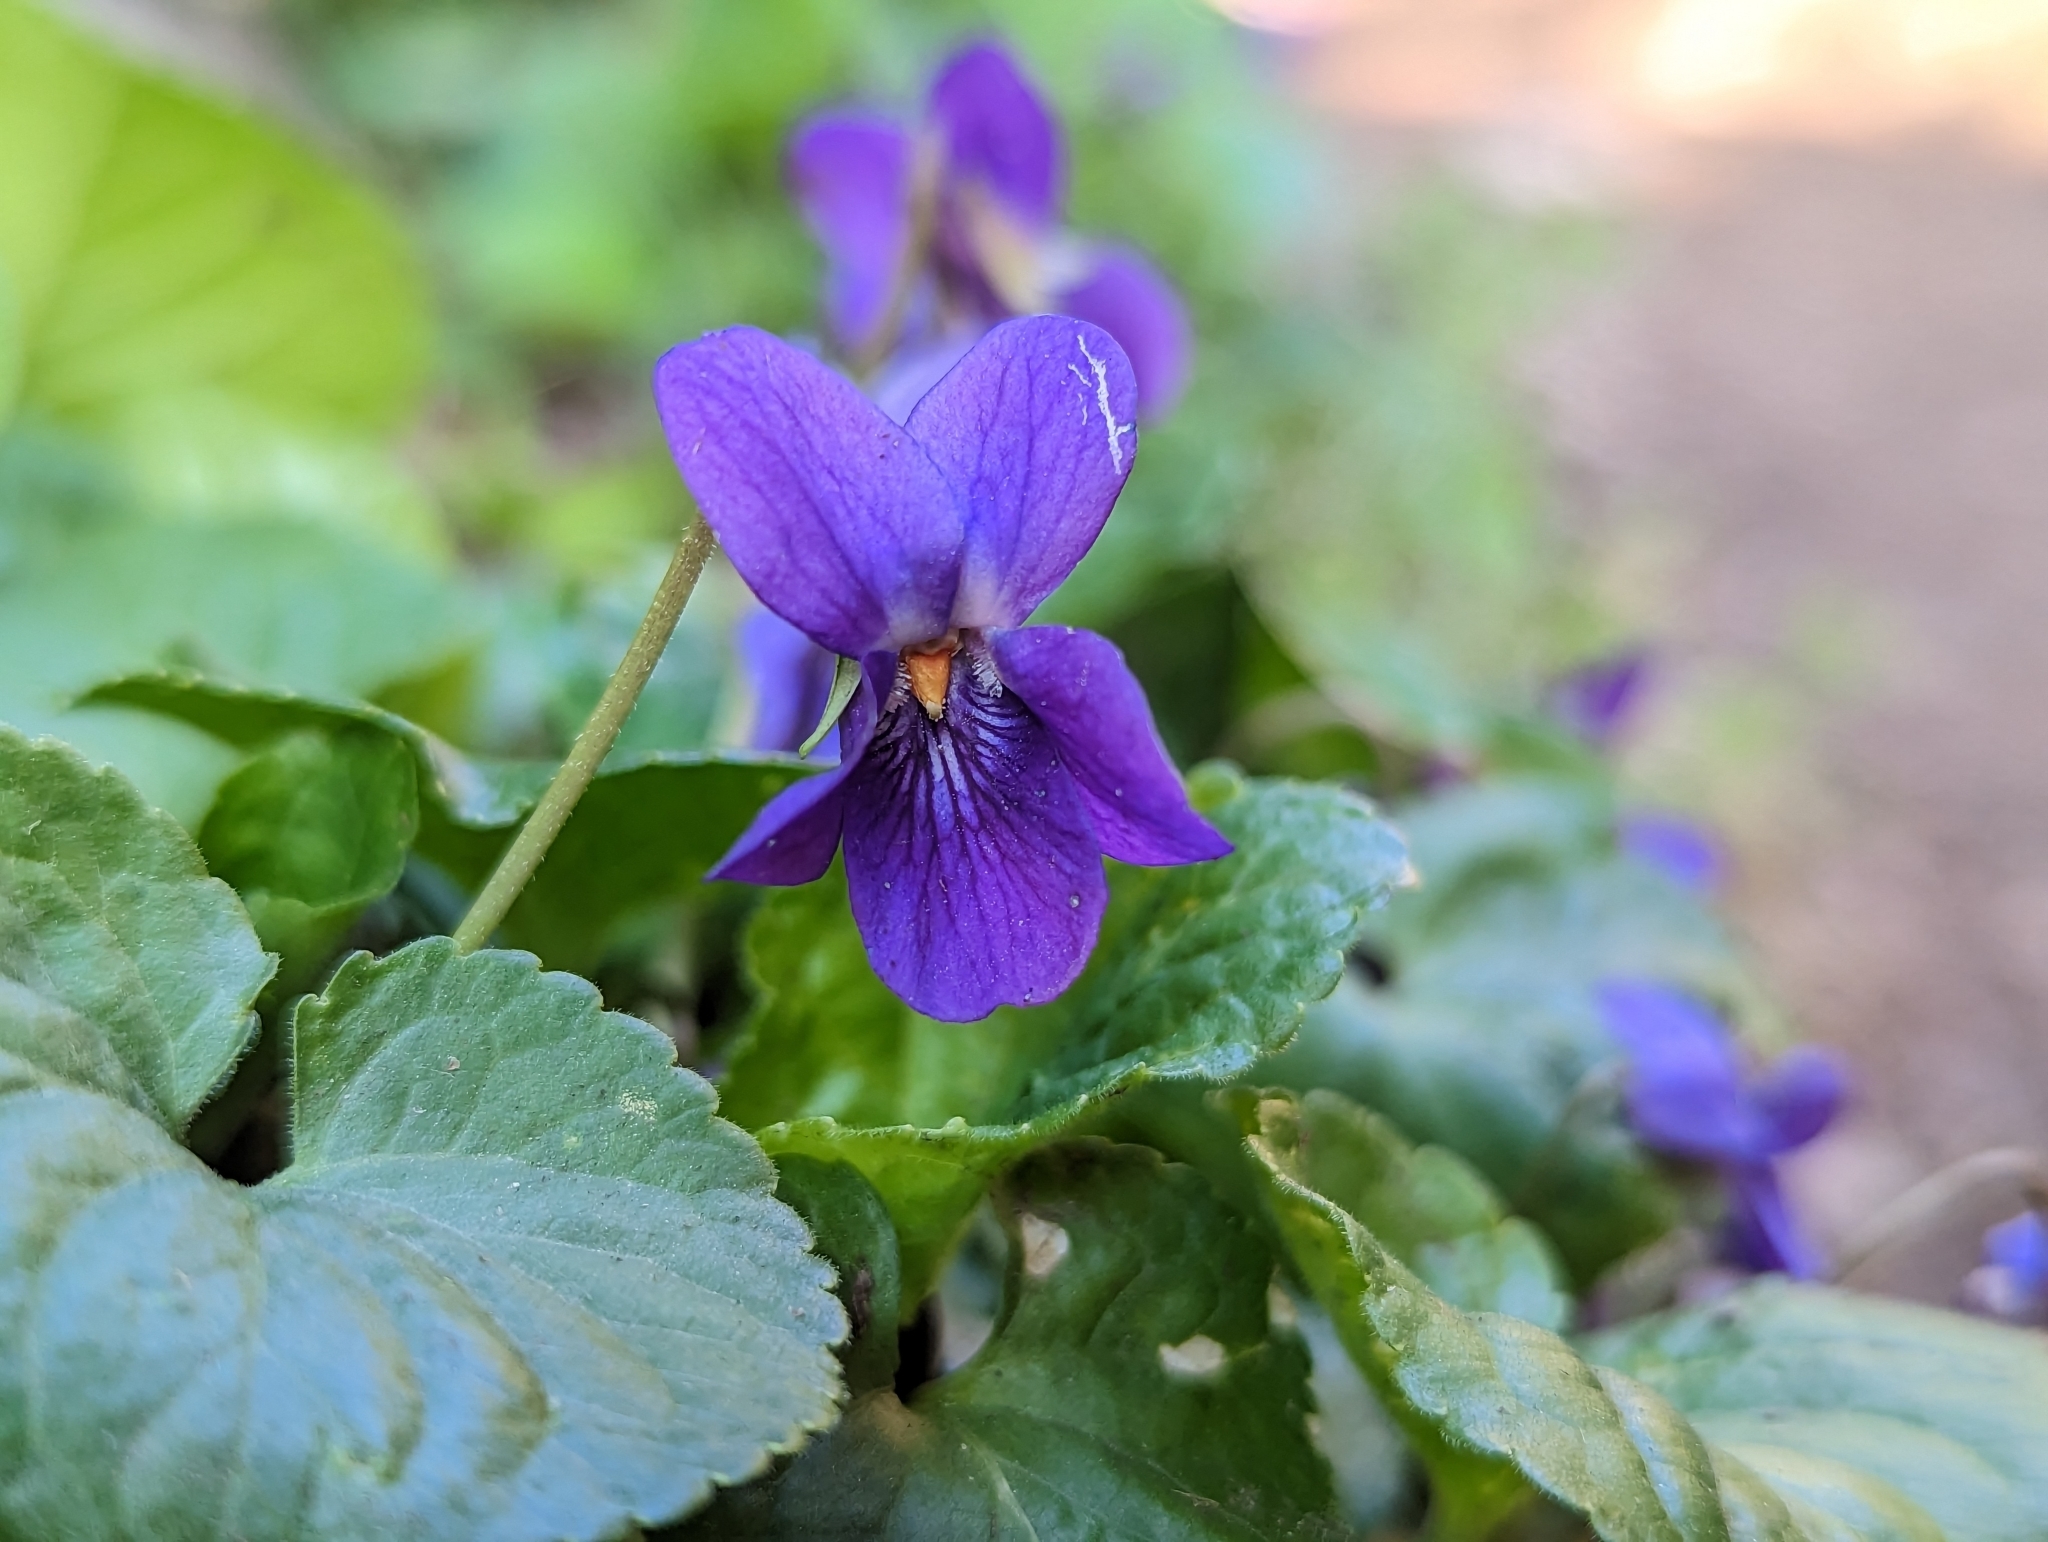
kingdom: Plantae
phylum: Tracheophyta
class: Magnoliopsida
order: Malpighiales
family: Violaceae
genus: Viola
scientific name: Viola odorata
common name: Sweet violet
